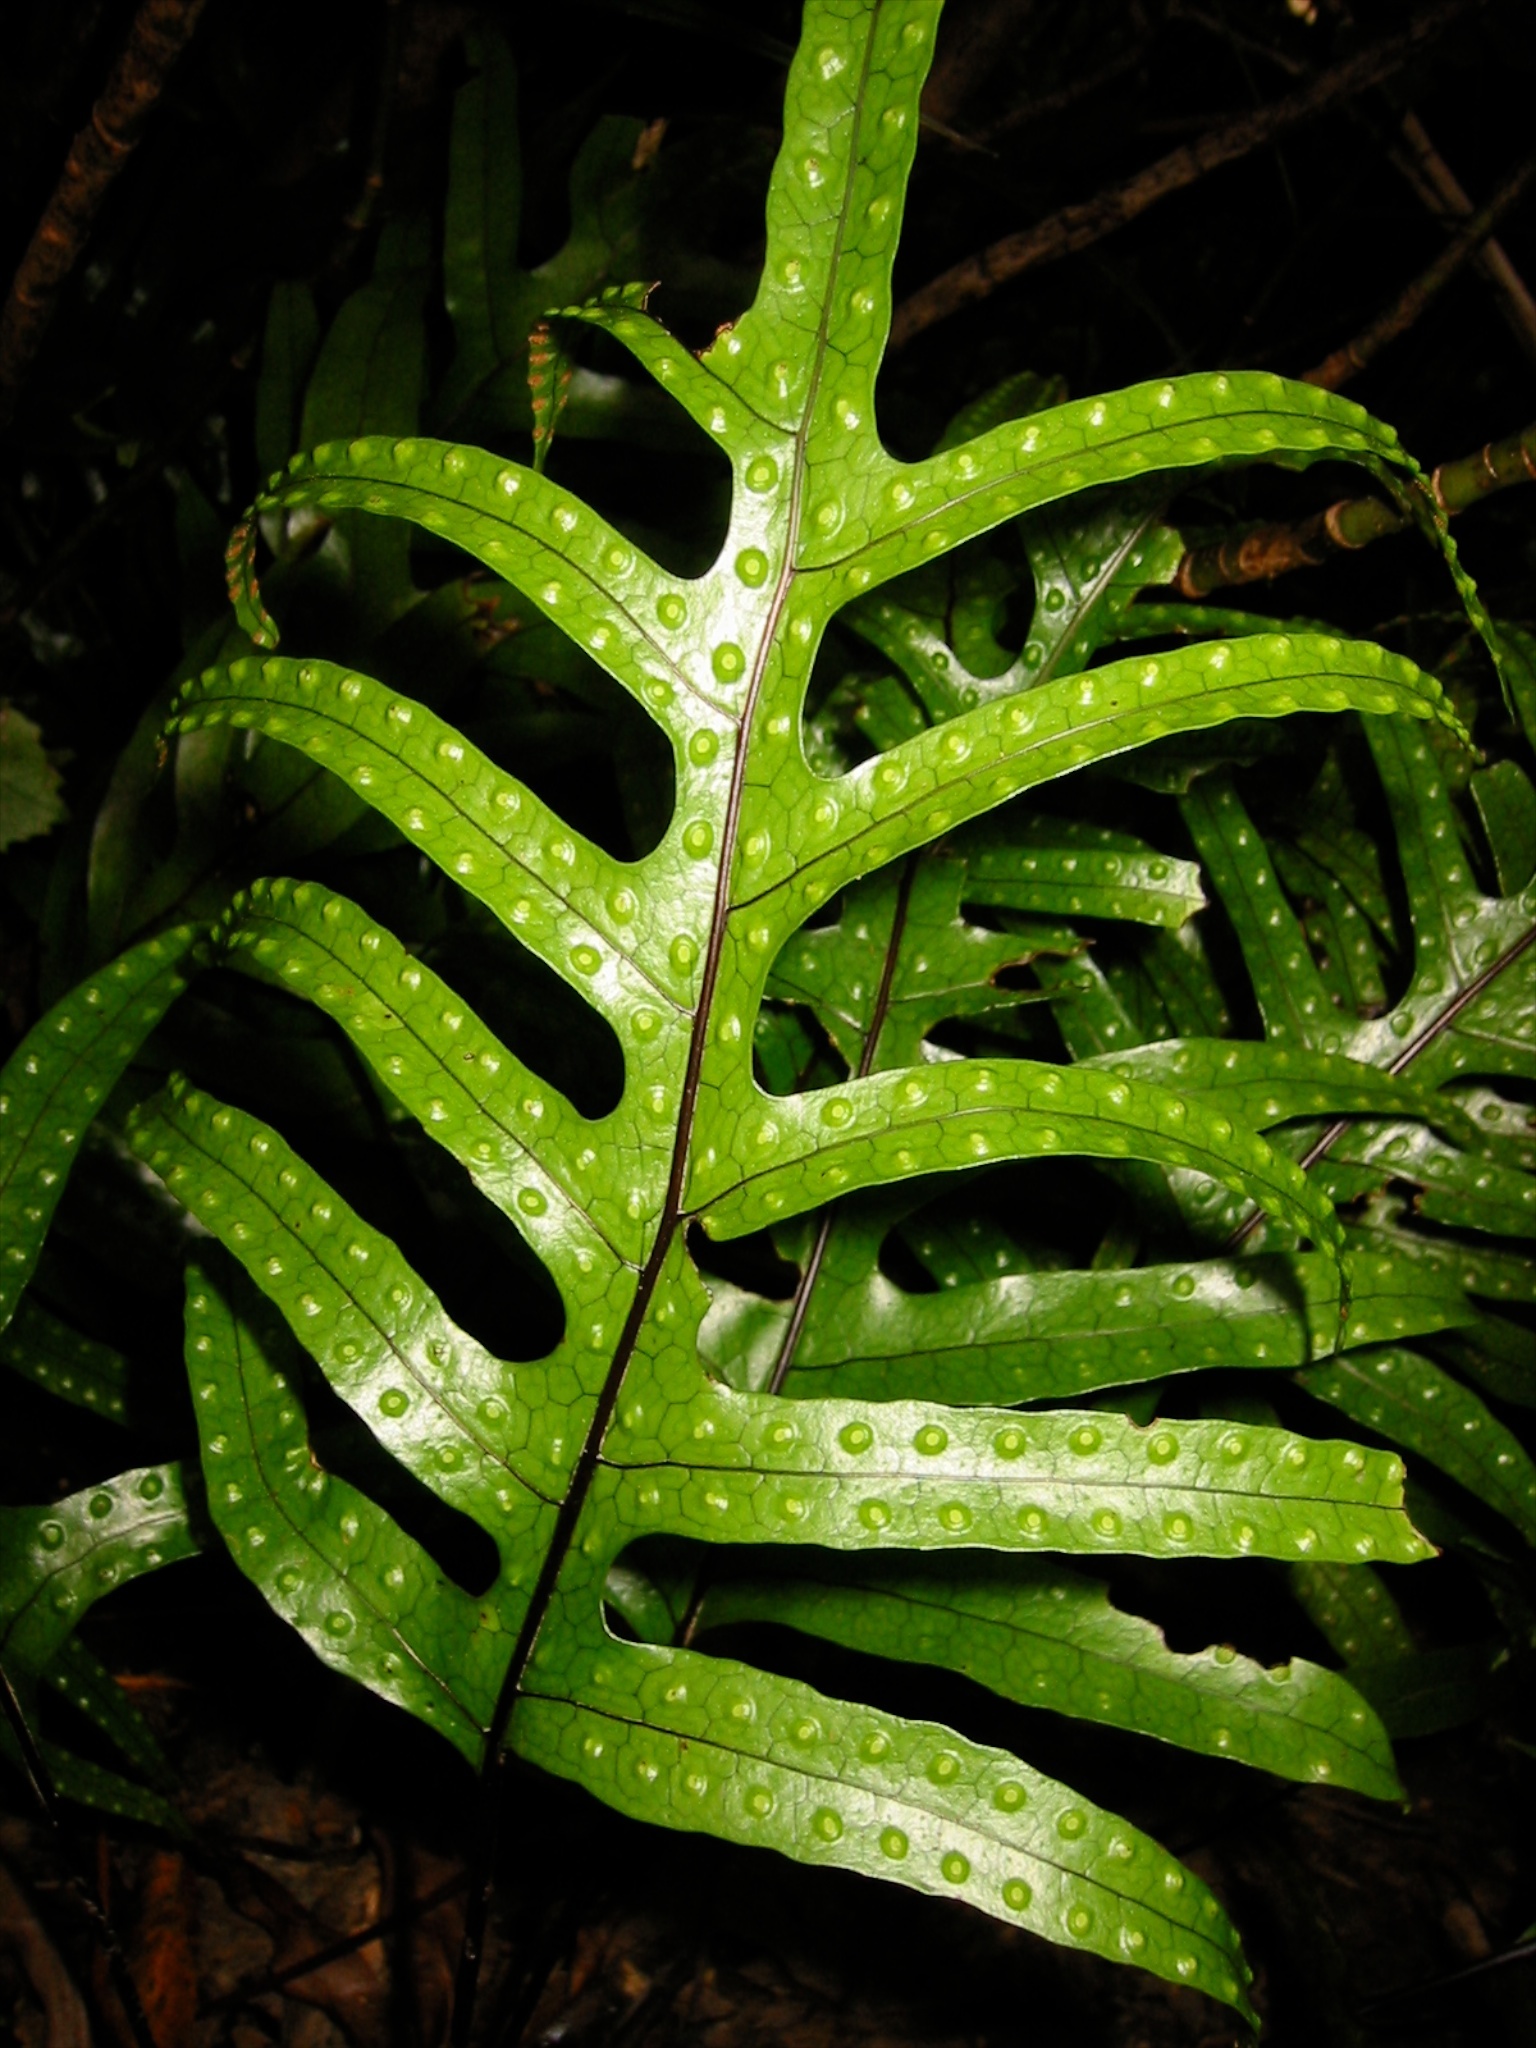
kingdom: Plantae
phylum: Tracheophyta
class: Polypodiopsida
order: Polypodiales
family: Polypodiaceae
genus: Lecanopteris
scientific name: Lecanopteris pustulata
